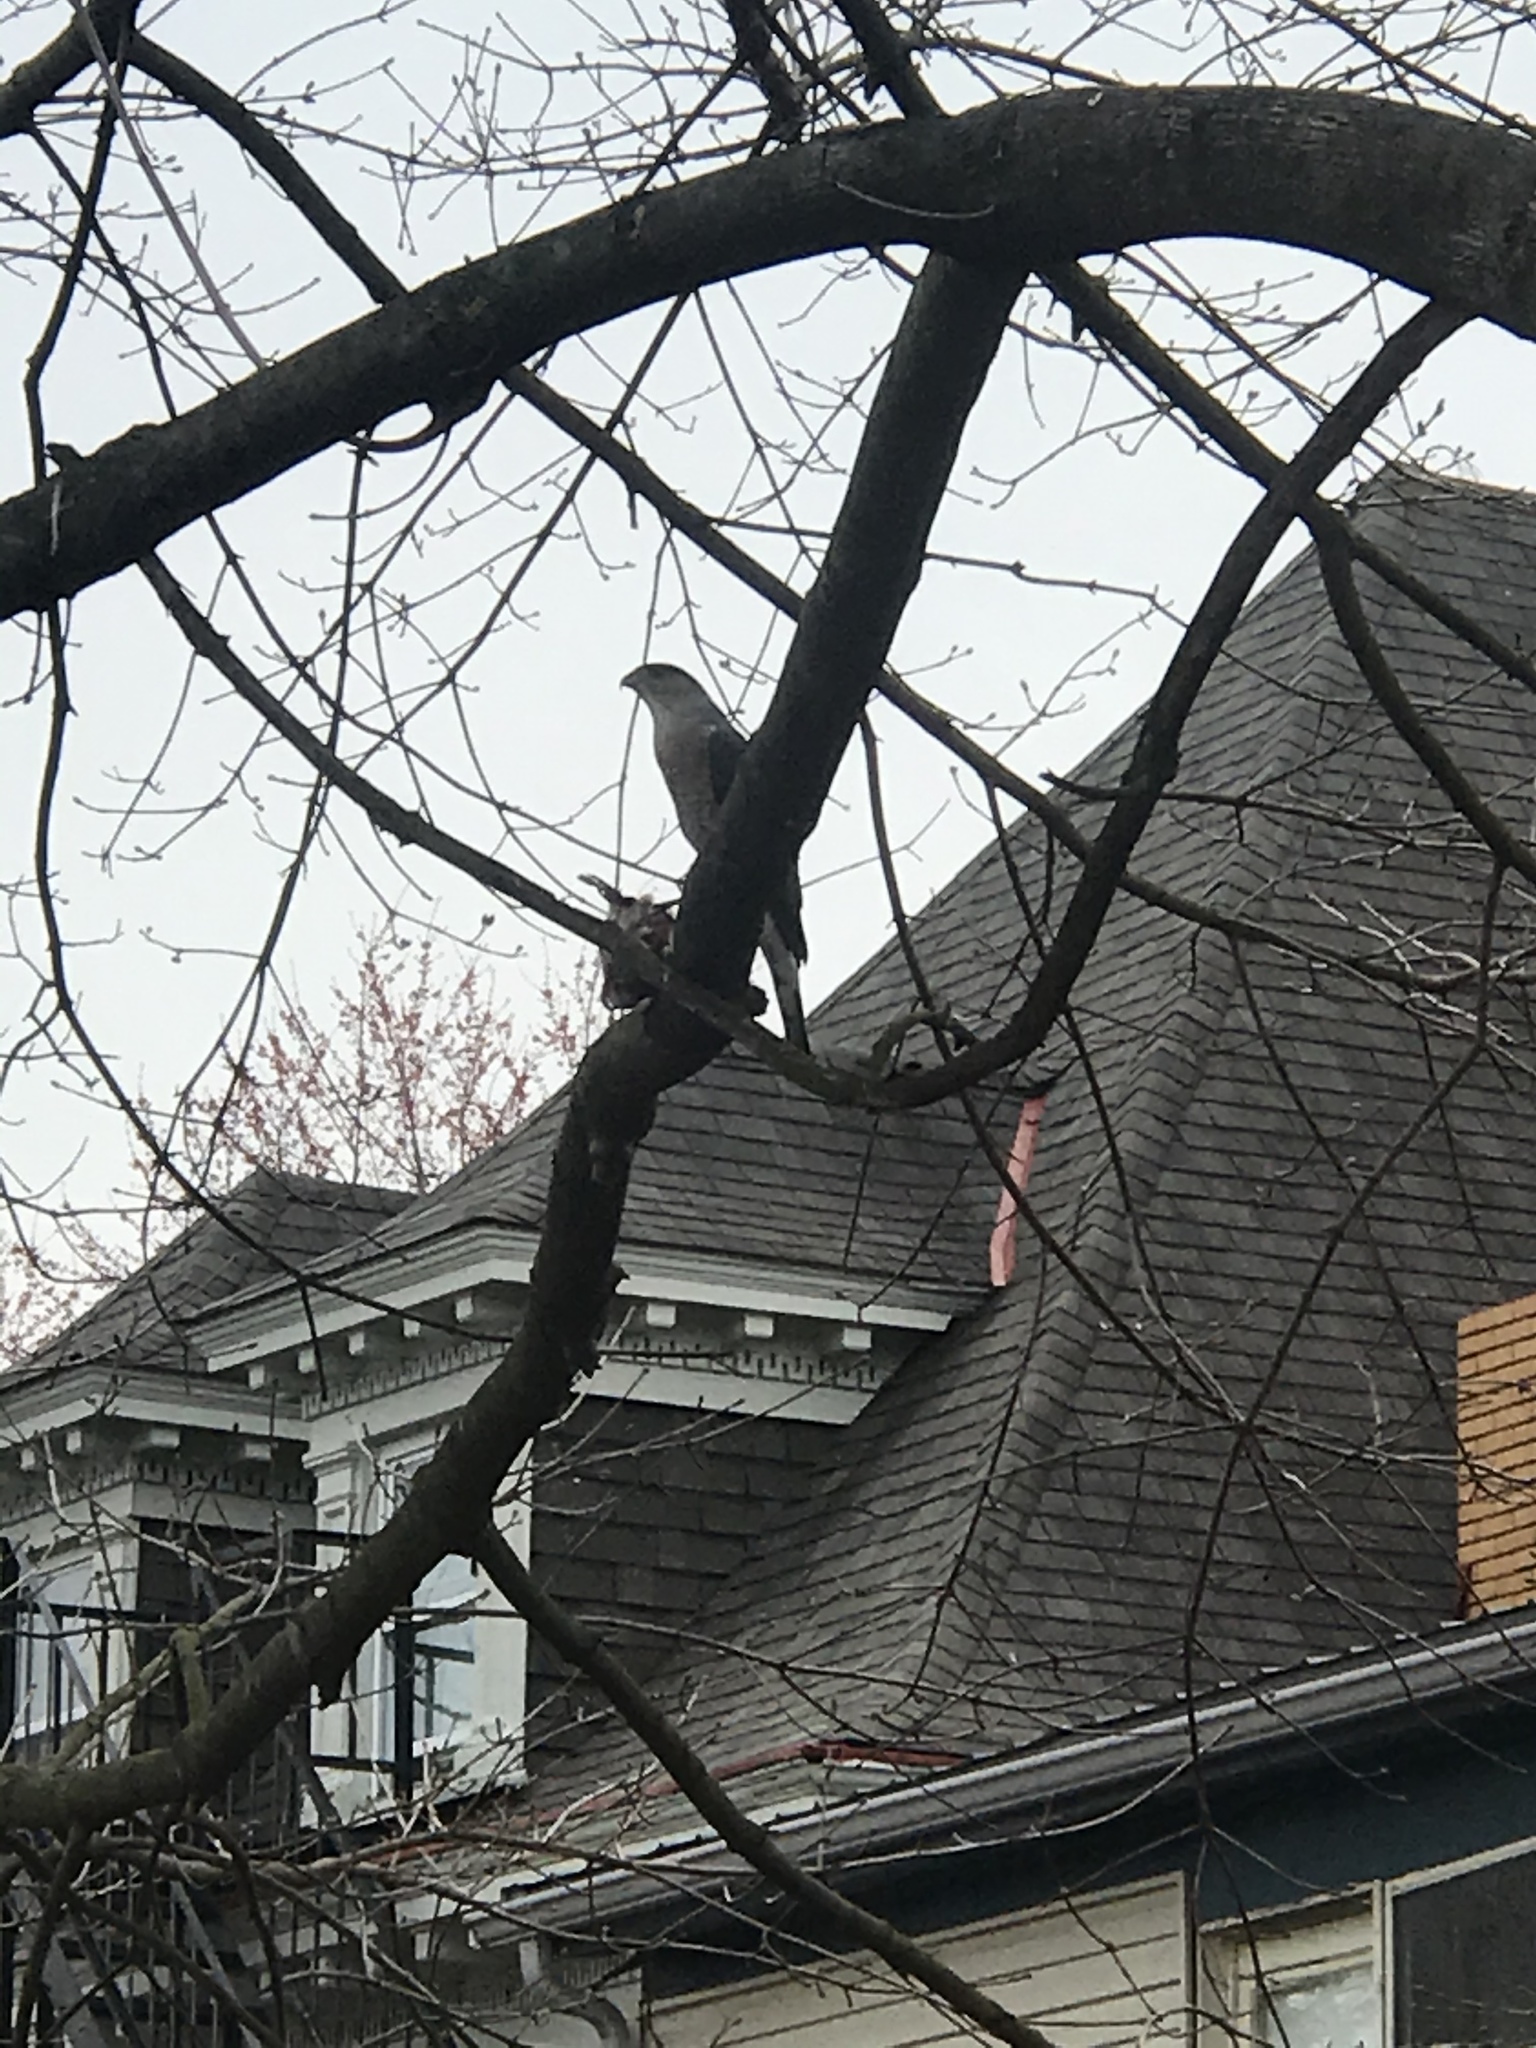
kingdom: Animalia
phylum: Chordata
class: Aves
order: Accipitriformes
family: Accipitridae
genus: Accipiter
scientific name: Accipiter cooperii
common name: Cooper's hawk
